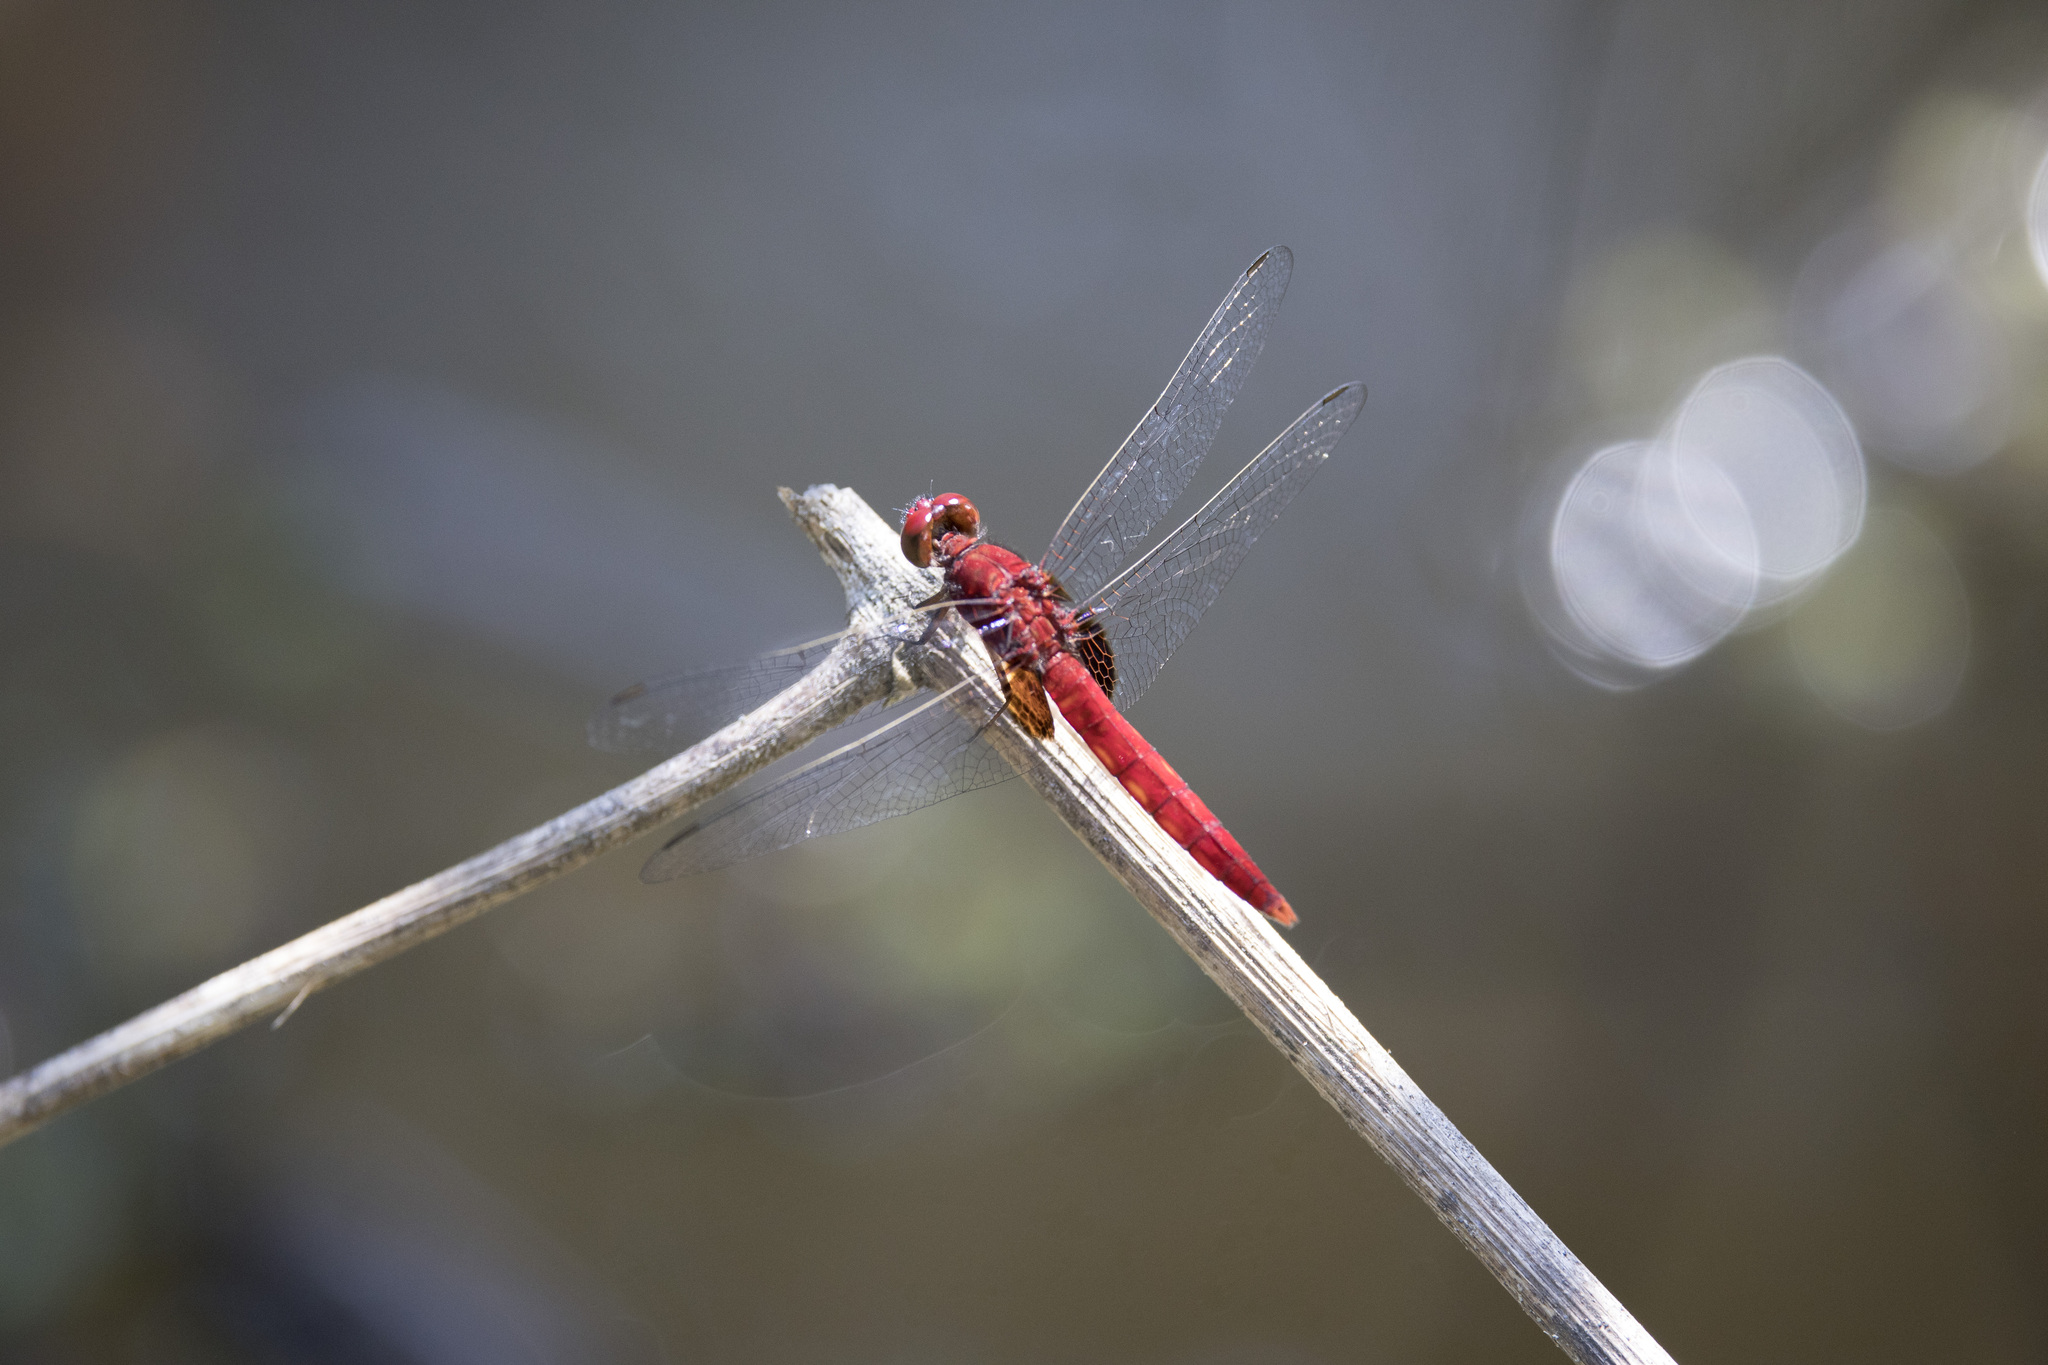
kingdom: Animalia
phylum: Arthropoda
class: Insecta
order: Odonata
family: Libellulidae
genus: Erythemis
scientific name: Erythemis mithroides
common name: Claret pondhawk
